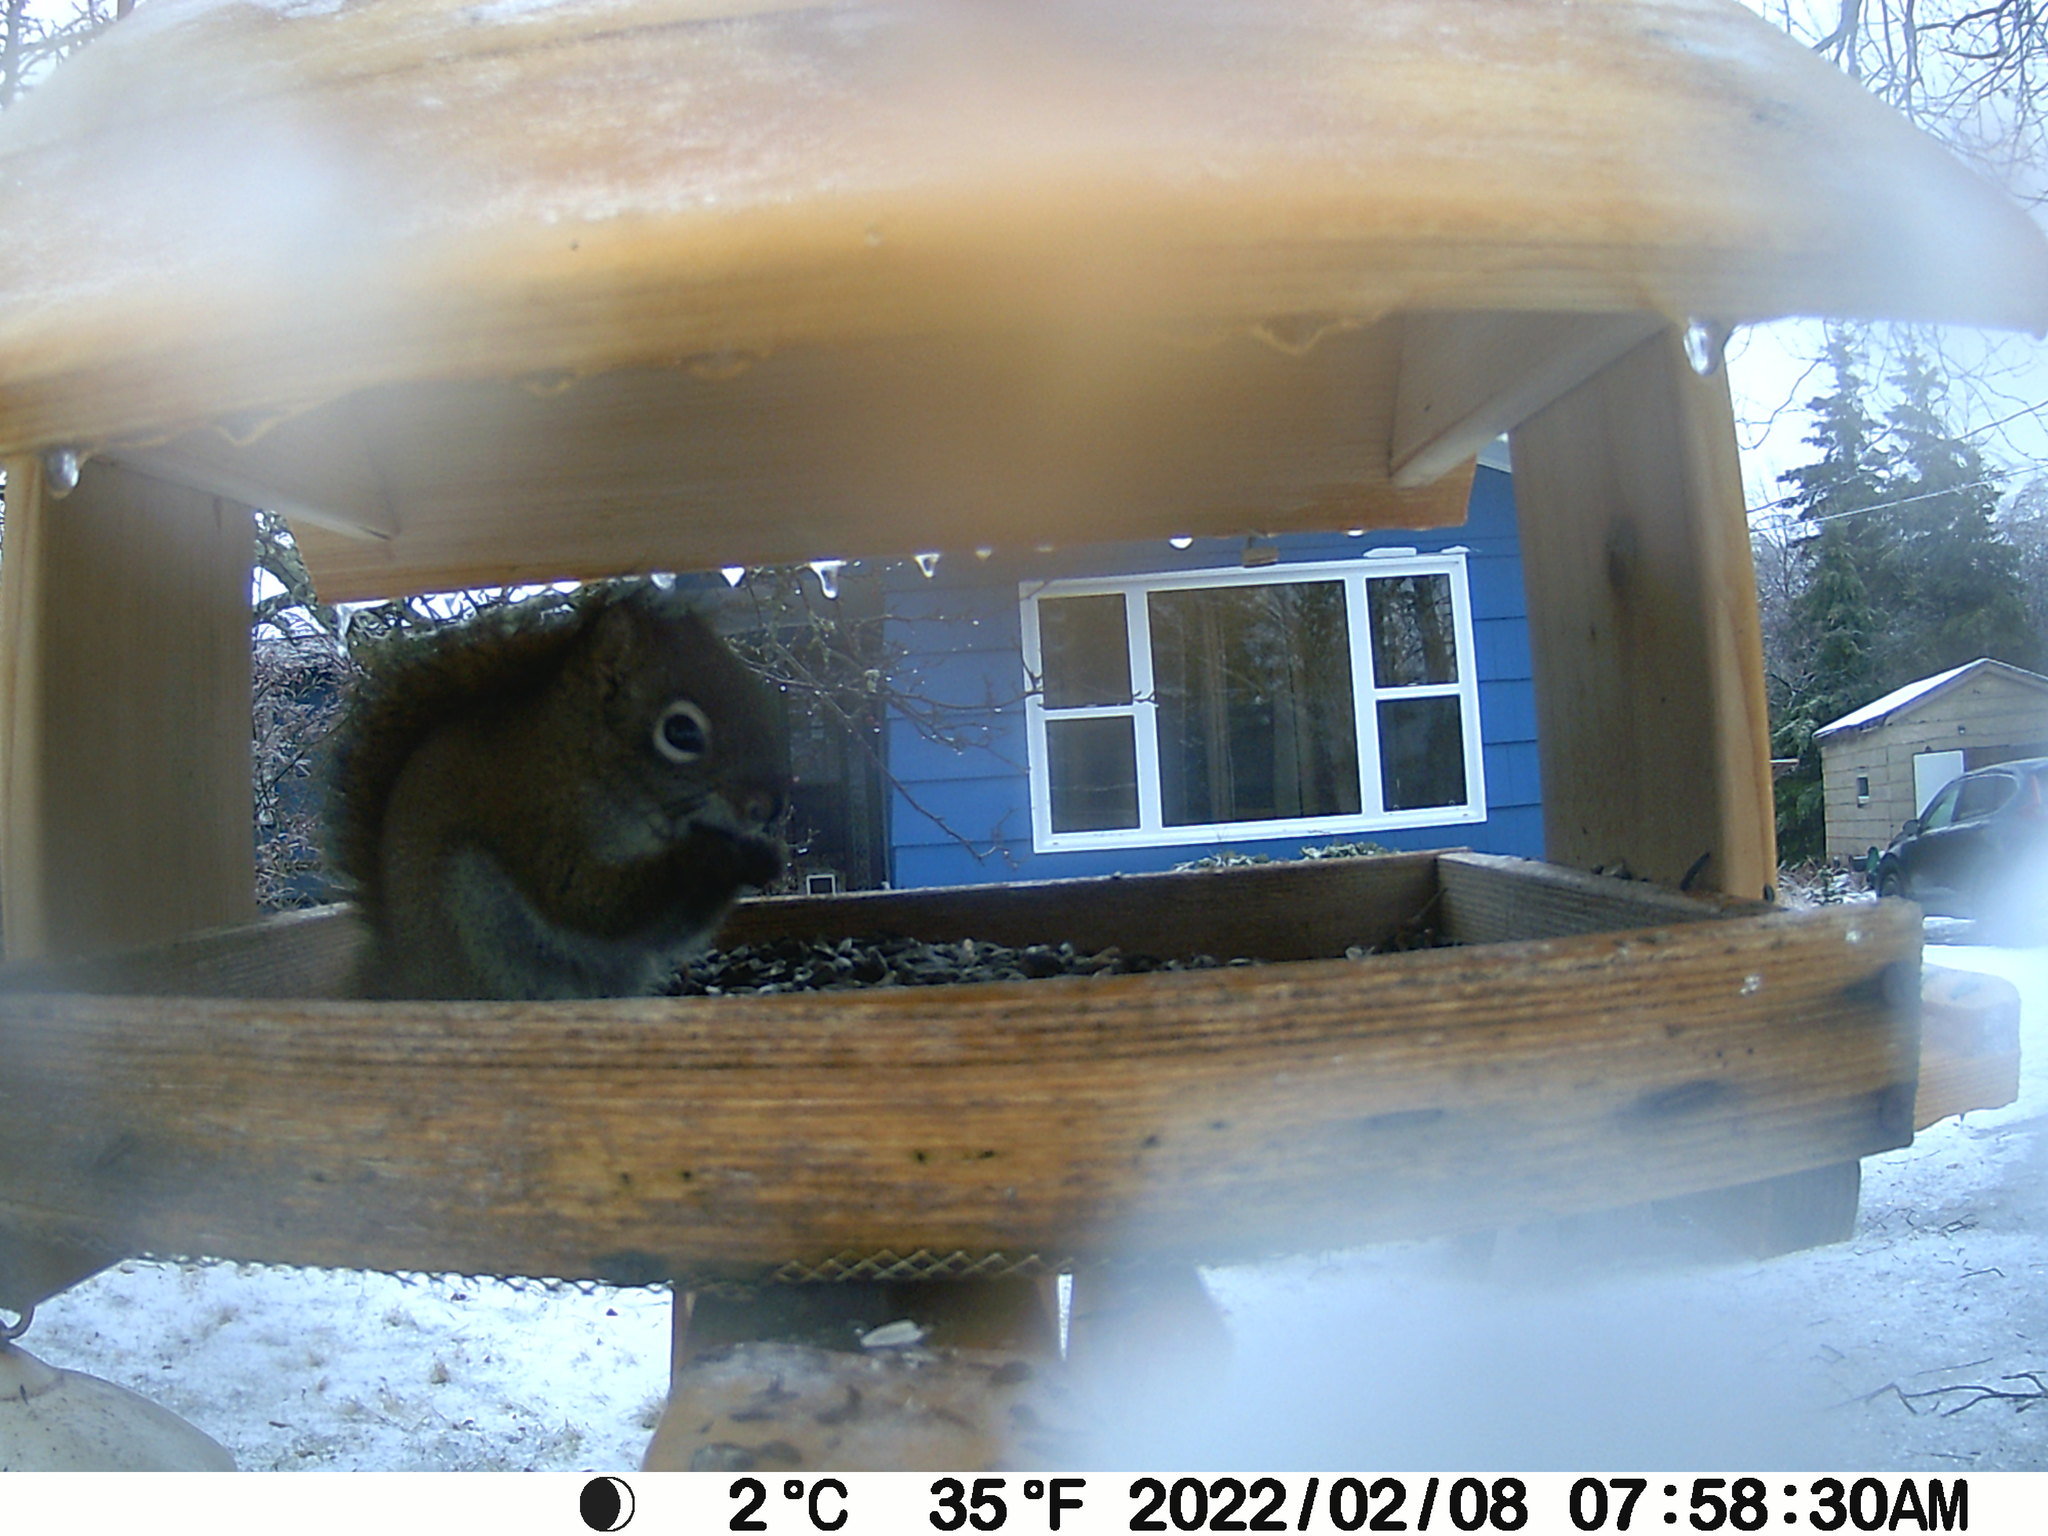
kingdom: Animalia
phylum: Chordata
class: Mammalia
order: Rodentia
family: Sciuridae
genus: Tamiasciurus
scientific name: Tamiasciurus hudsonicus
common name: Red squirrel
